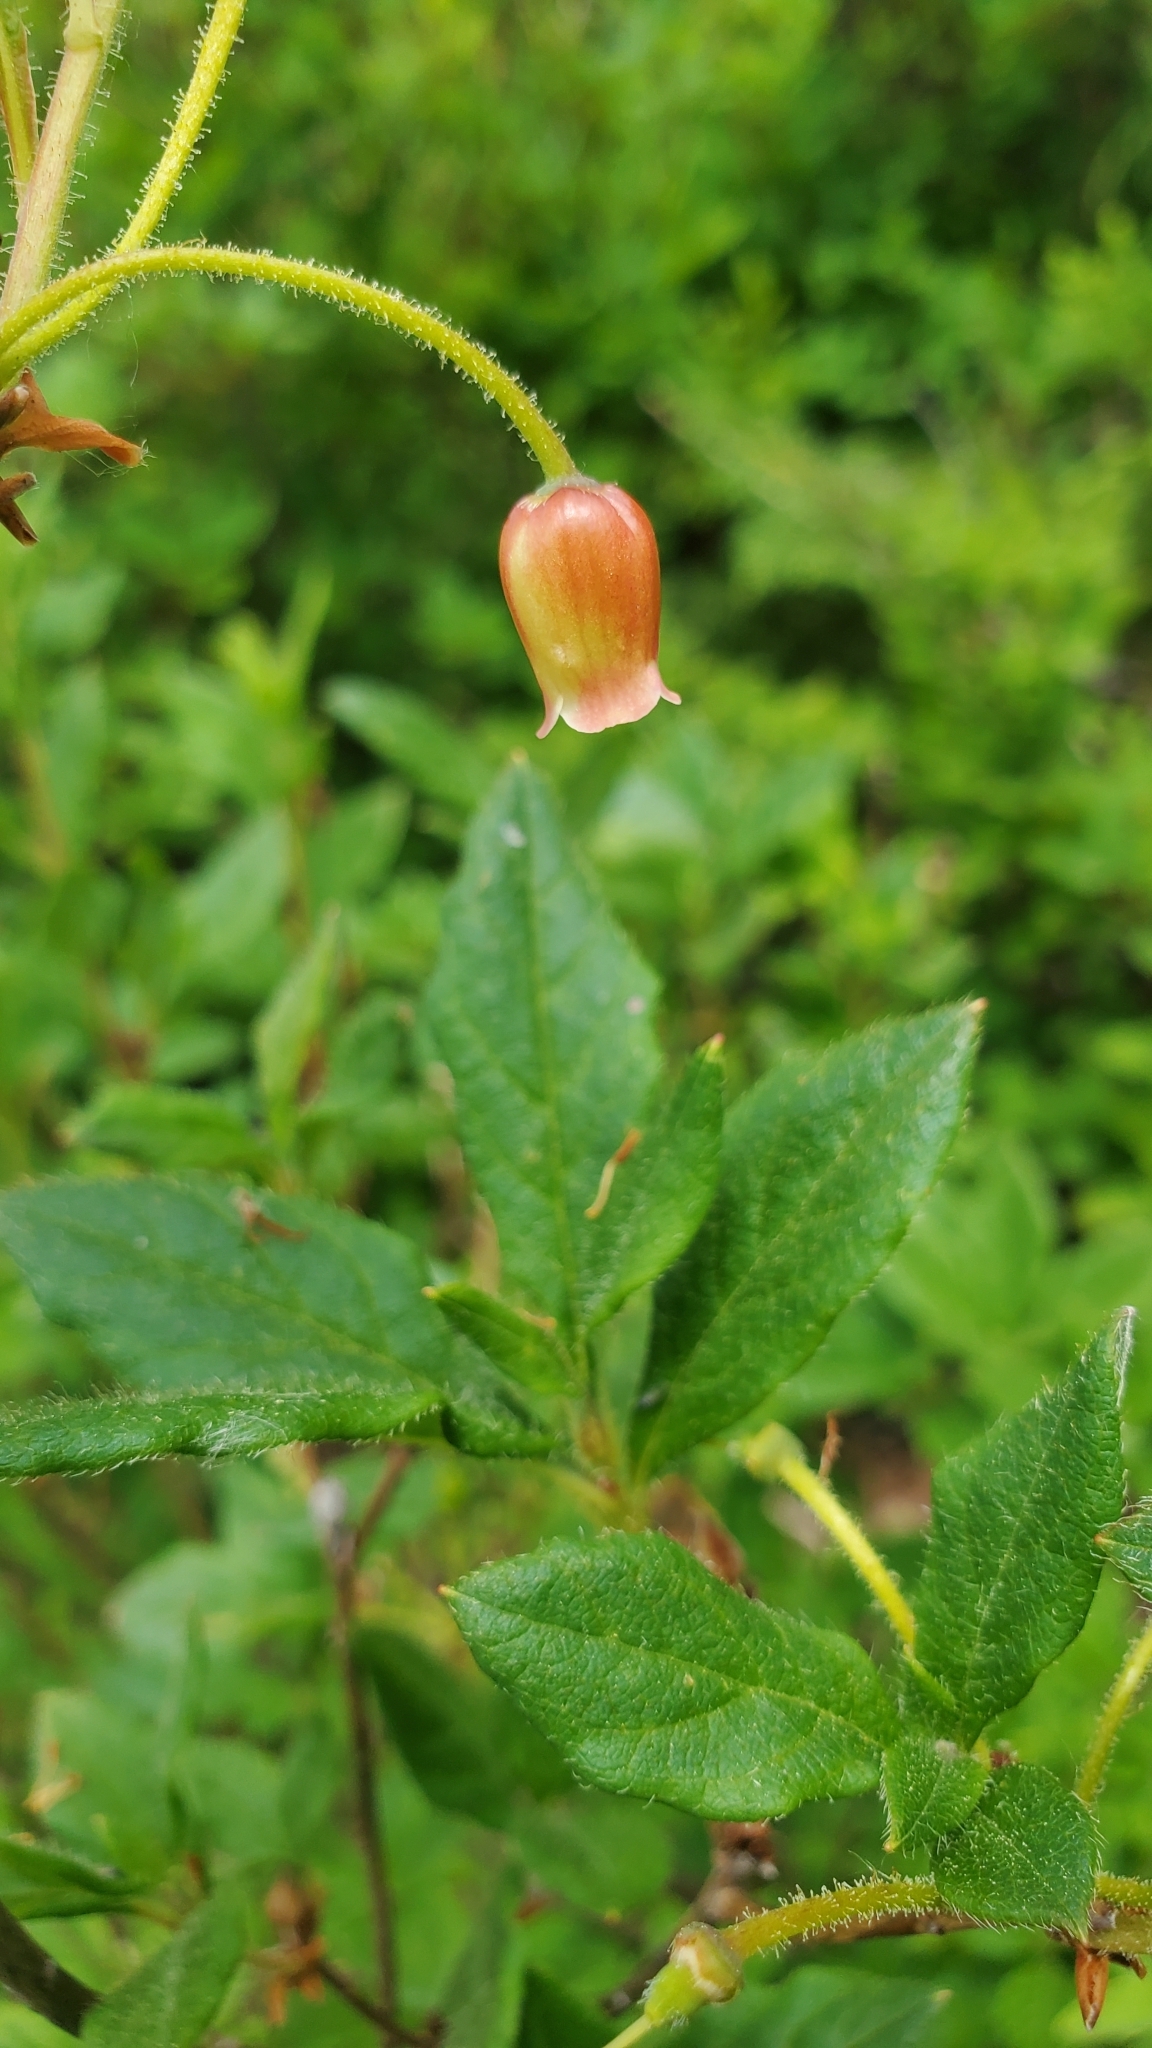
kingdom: Plantae
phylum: Tracheophyta
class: Magnoliopsida
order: Ericales
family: Ericaceae
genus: Rhododendron
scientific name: Rhododendron menziesii
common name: Pacific menziesia
